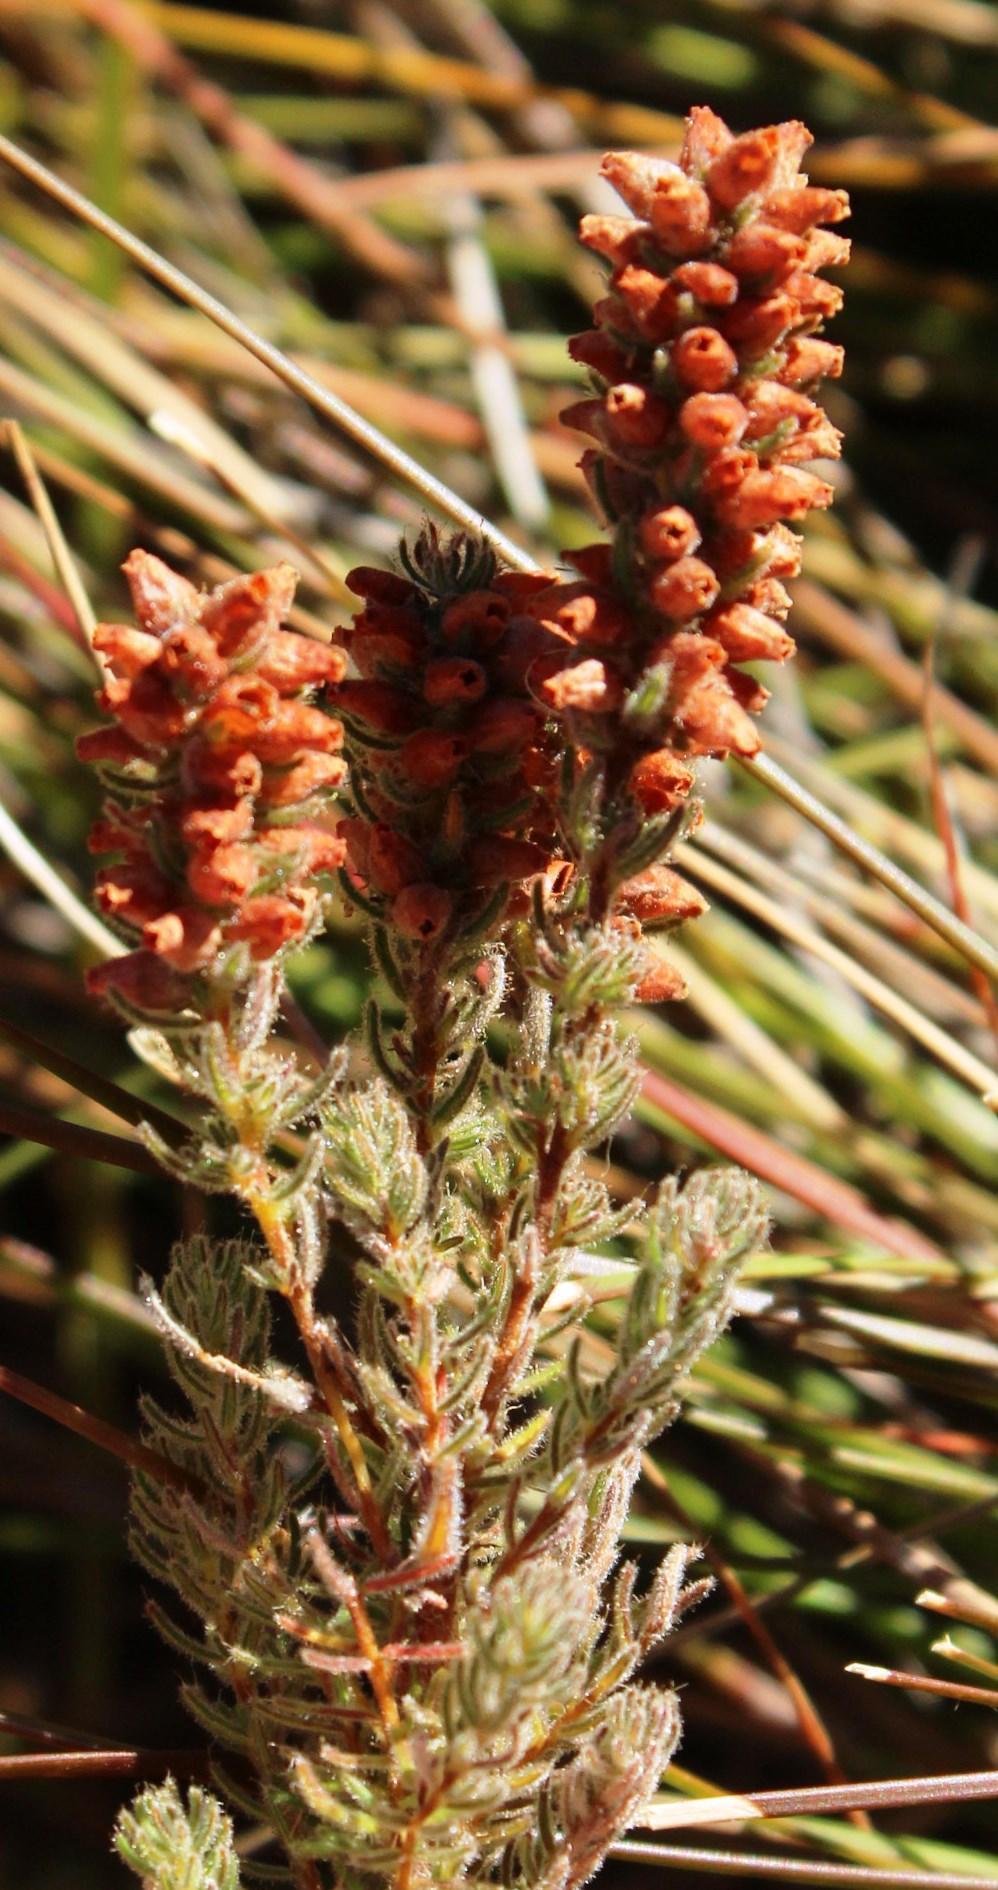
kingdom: Plantae
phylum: Tracheophyta
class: Magnoliopsida
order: Ericales
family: Ericaceae
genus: Erica
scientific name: Erica alopecurus
